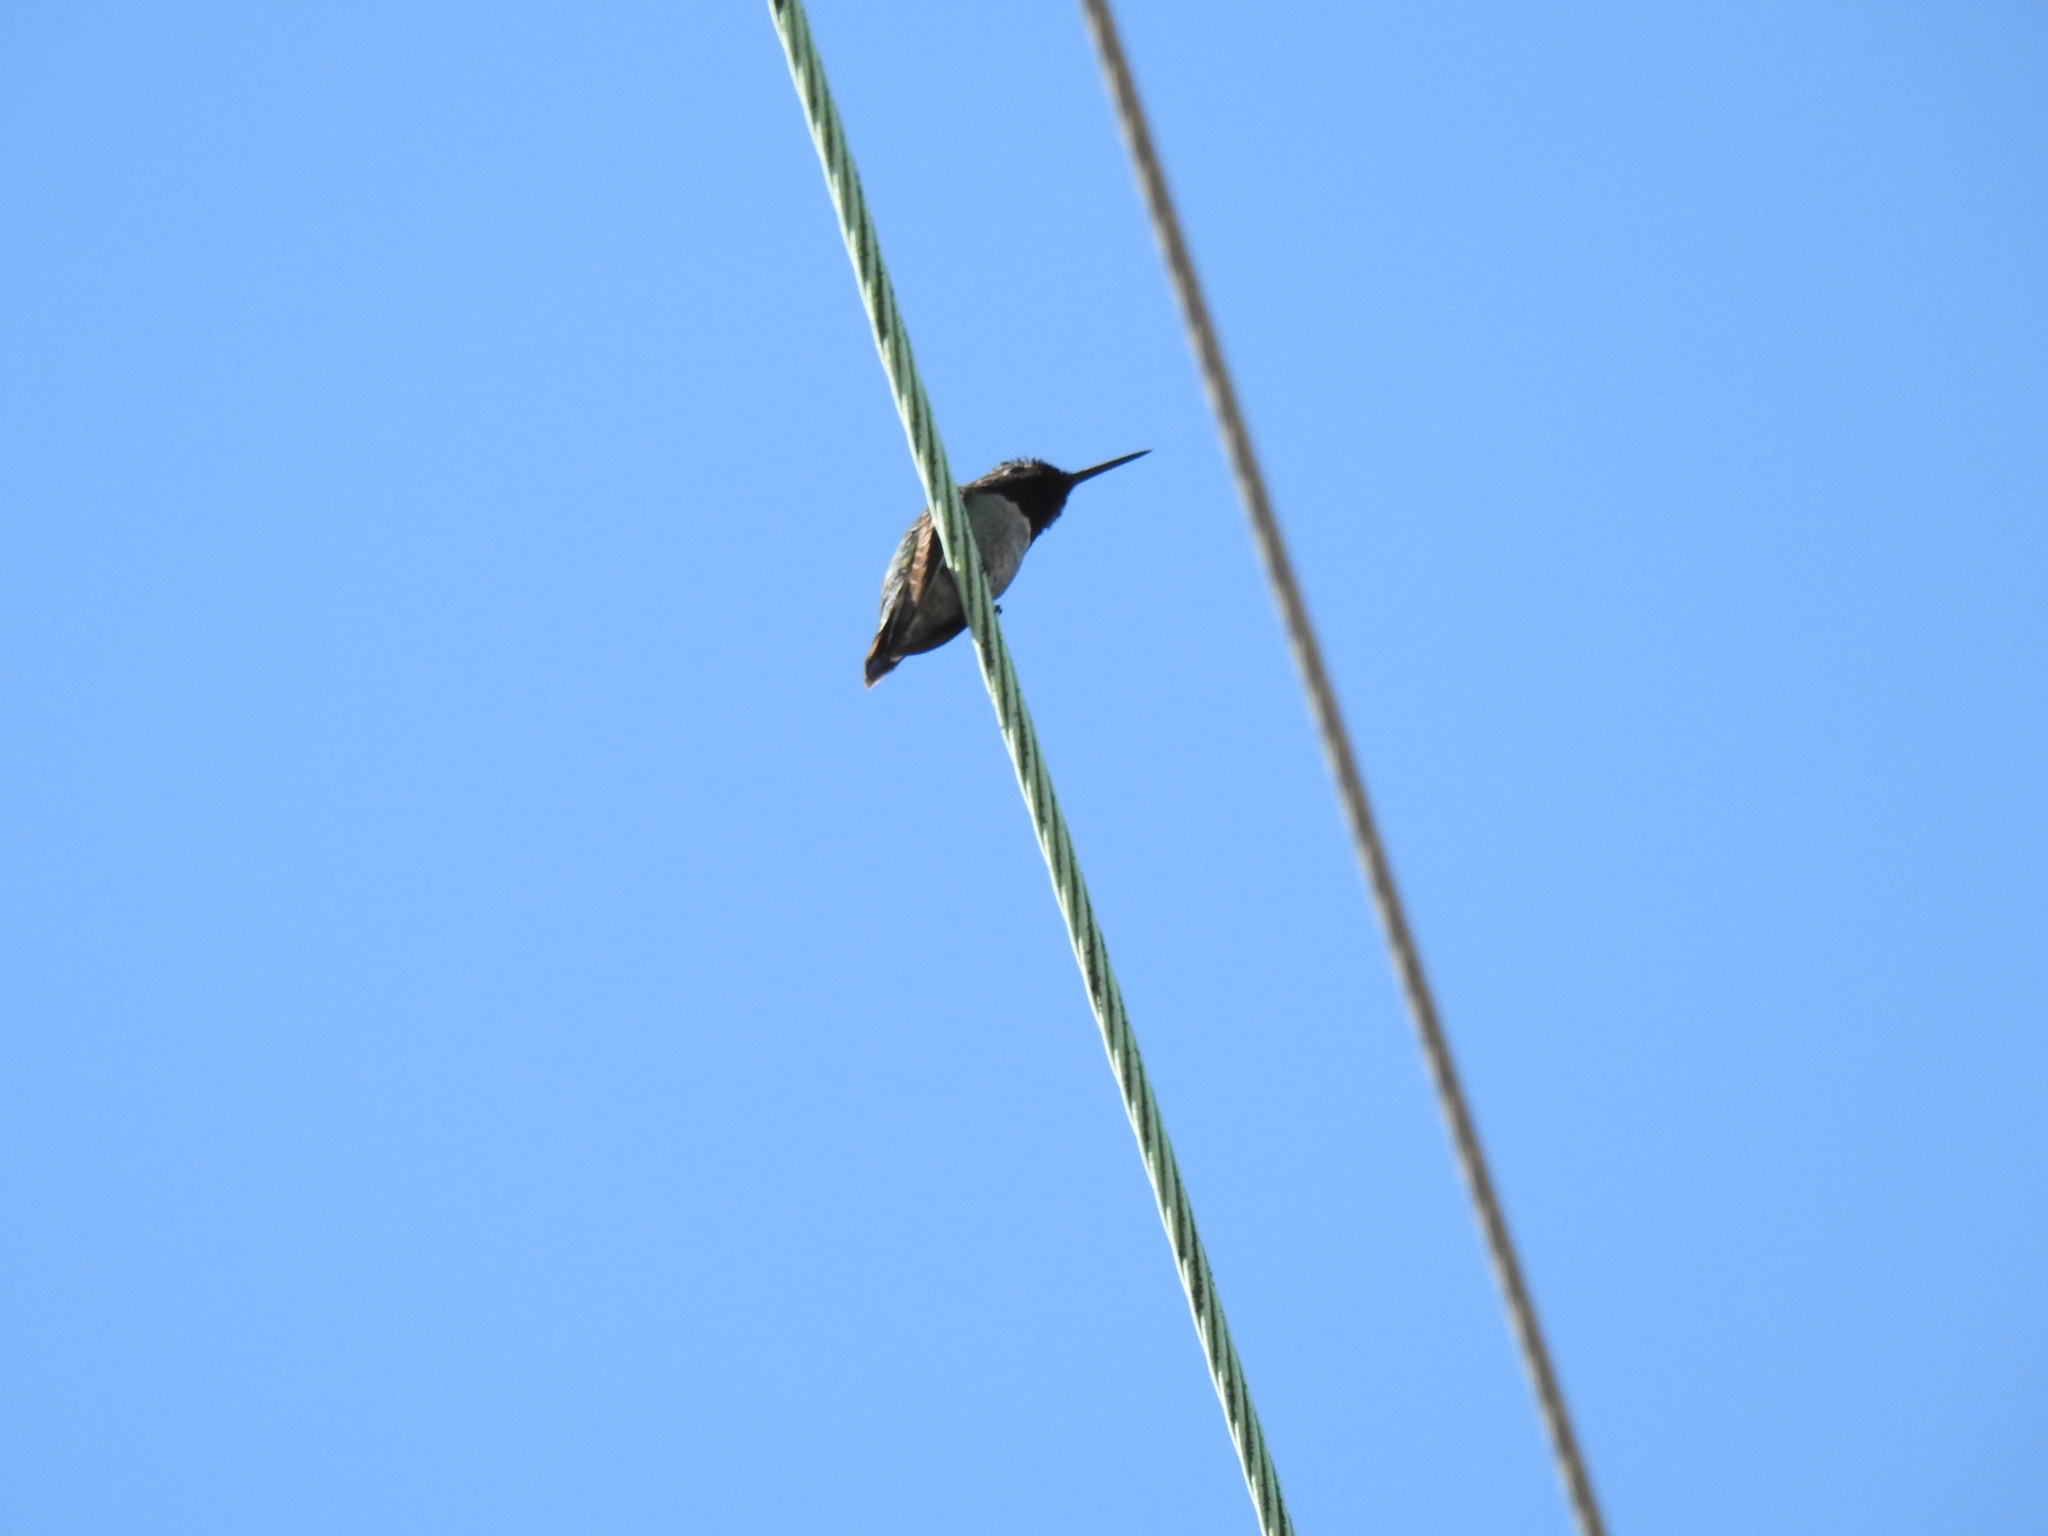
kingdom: Animalia
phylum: Chordata
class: Aves
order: Apodiformes
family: Trochilidae
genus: Calypte
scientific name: Calypte anna
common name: Anna's hummingbird
